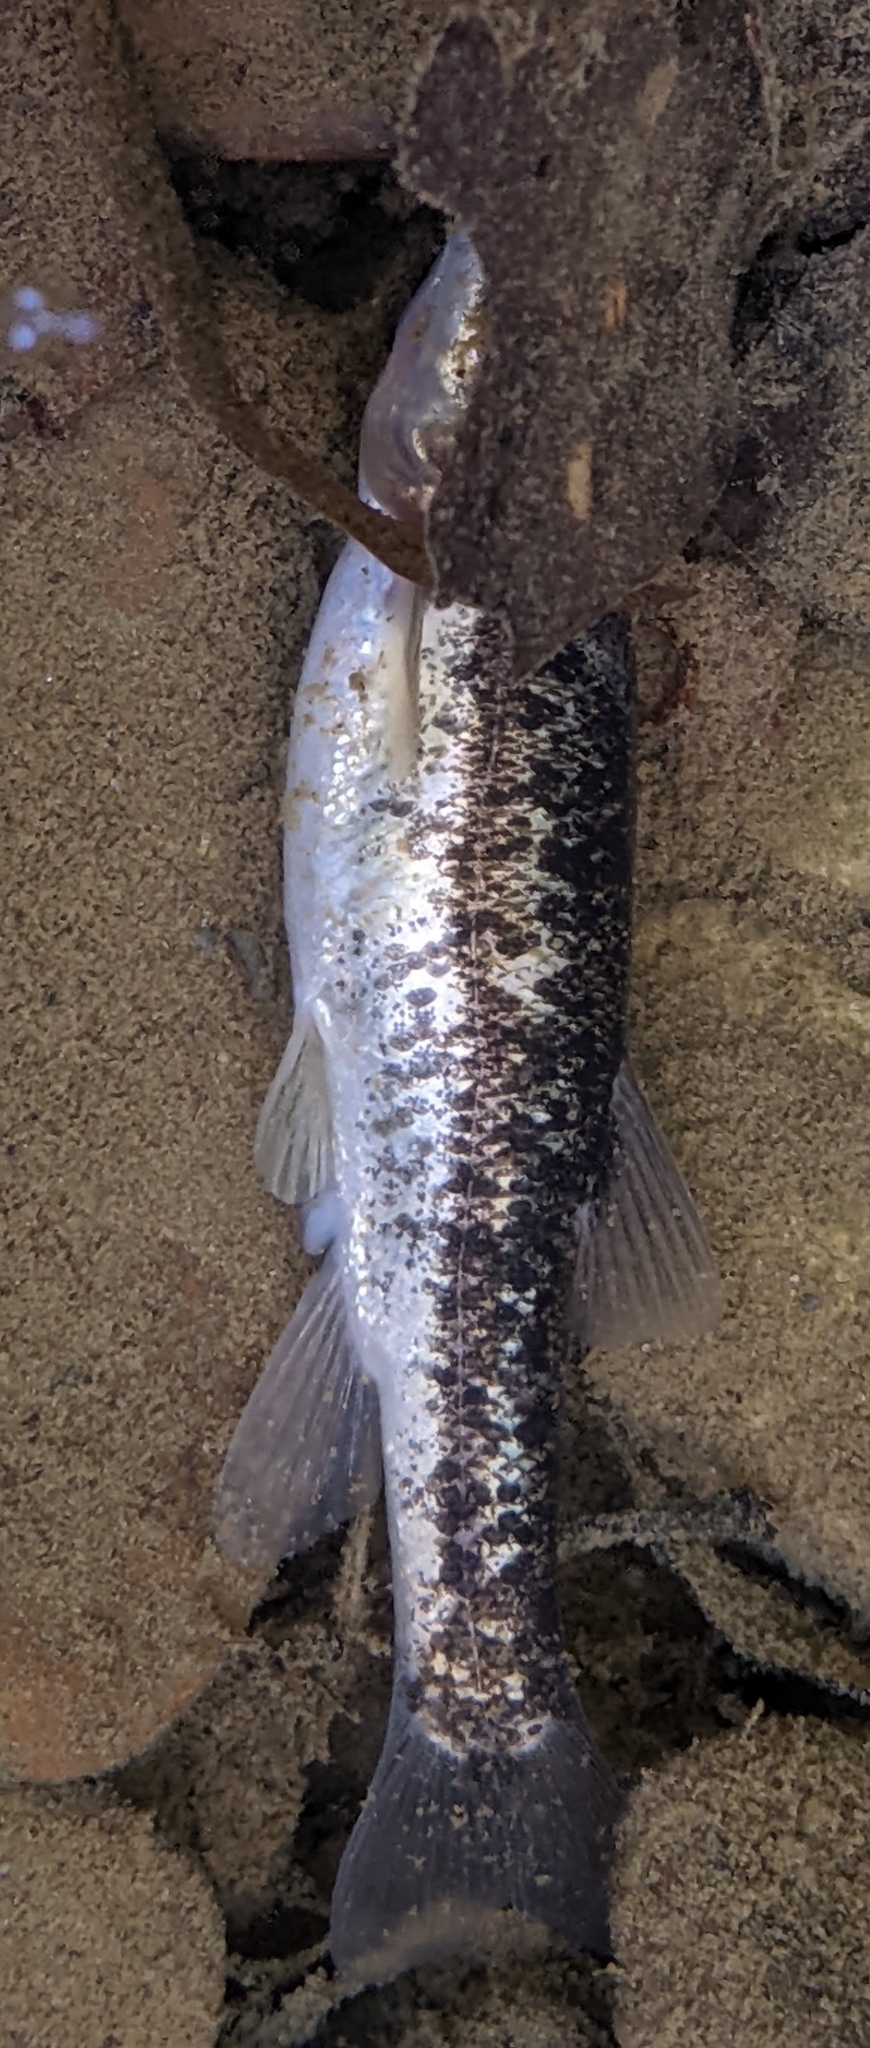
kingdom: Animalia
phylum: Chordata
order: Cypriniformes
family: Cyprinidae
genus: Rhinichthys
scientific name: Rhinichthys obtusus
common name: Western blacknose dace
